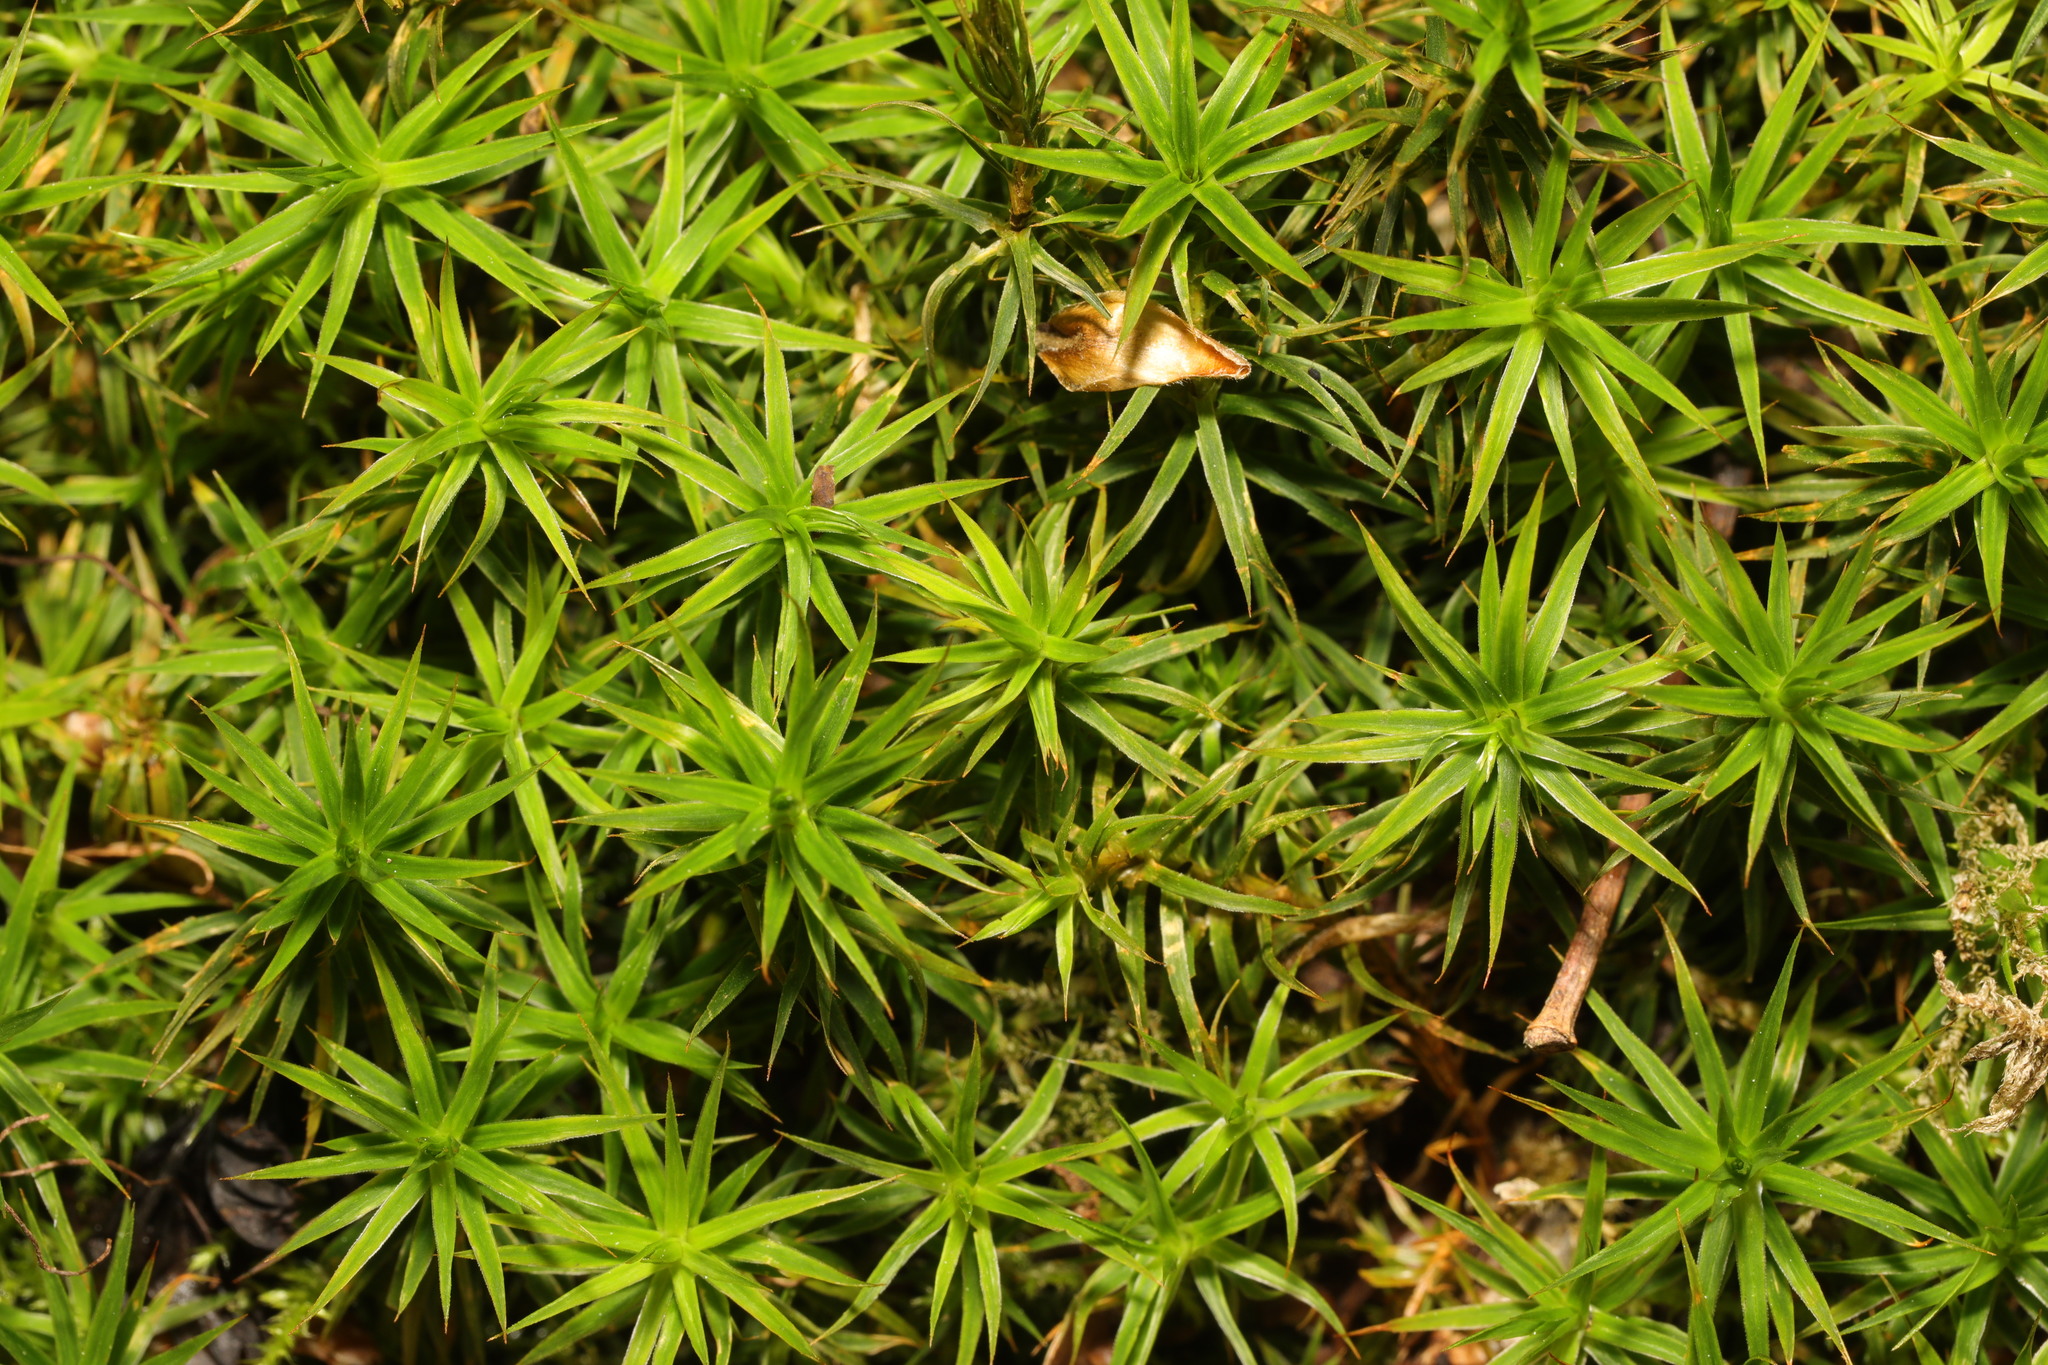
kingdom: Plantae
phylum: Bryophyta
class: Polytrichopsida
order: Polytrichales
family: Polytrichaceae
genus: Polytrichum
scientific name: Polytrichum formosum
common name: Bank haircap moss
